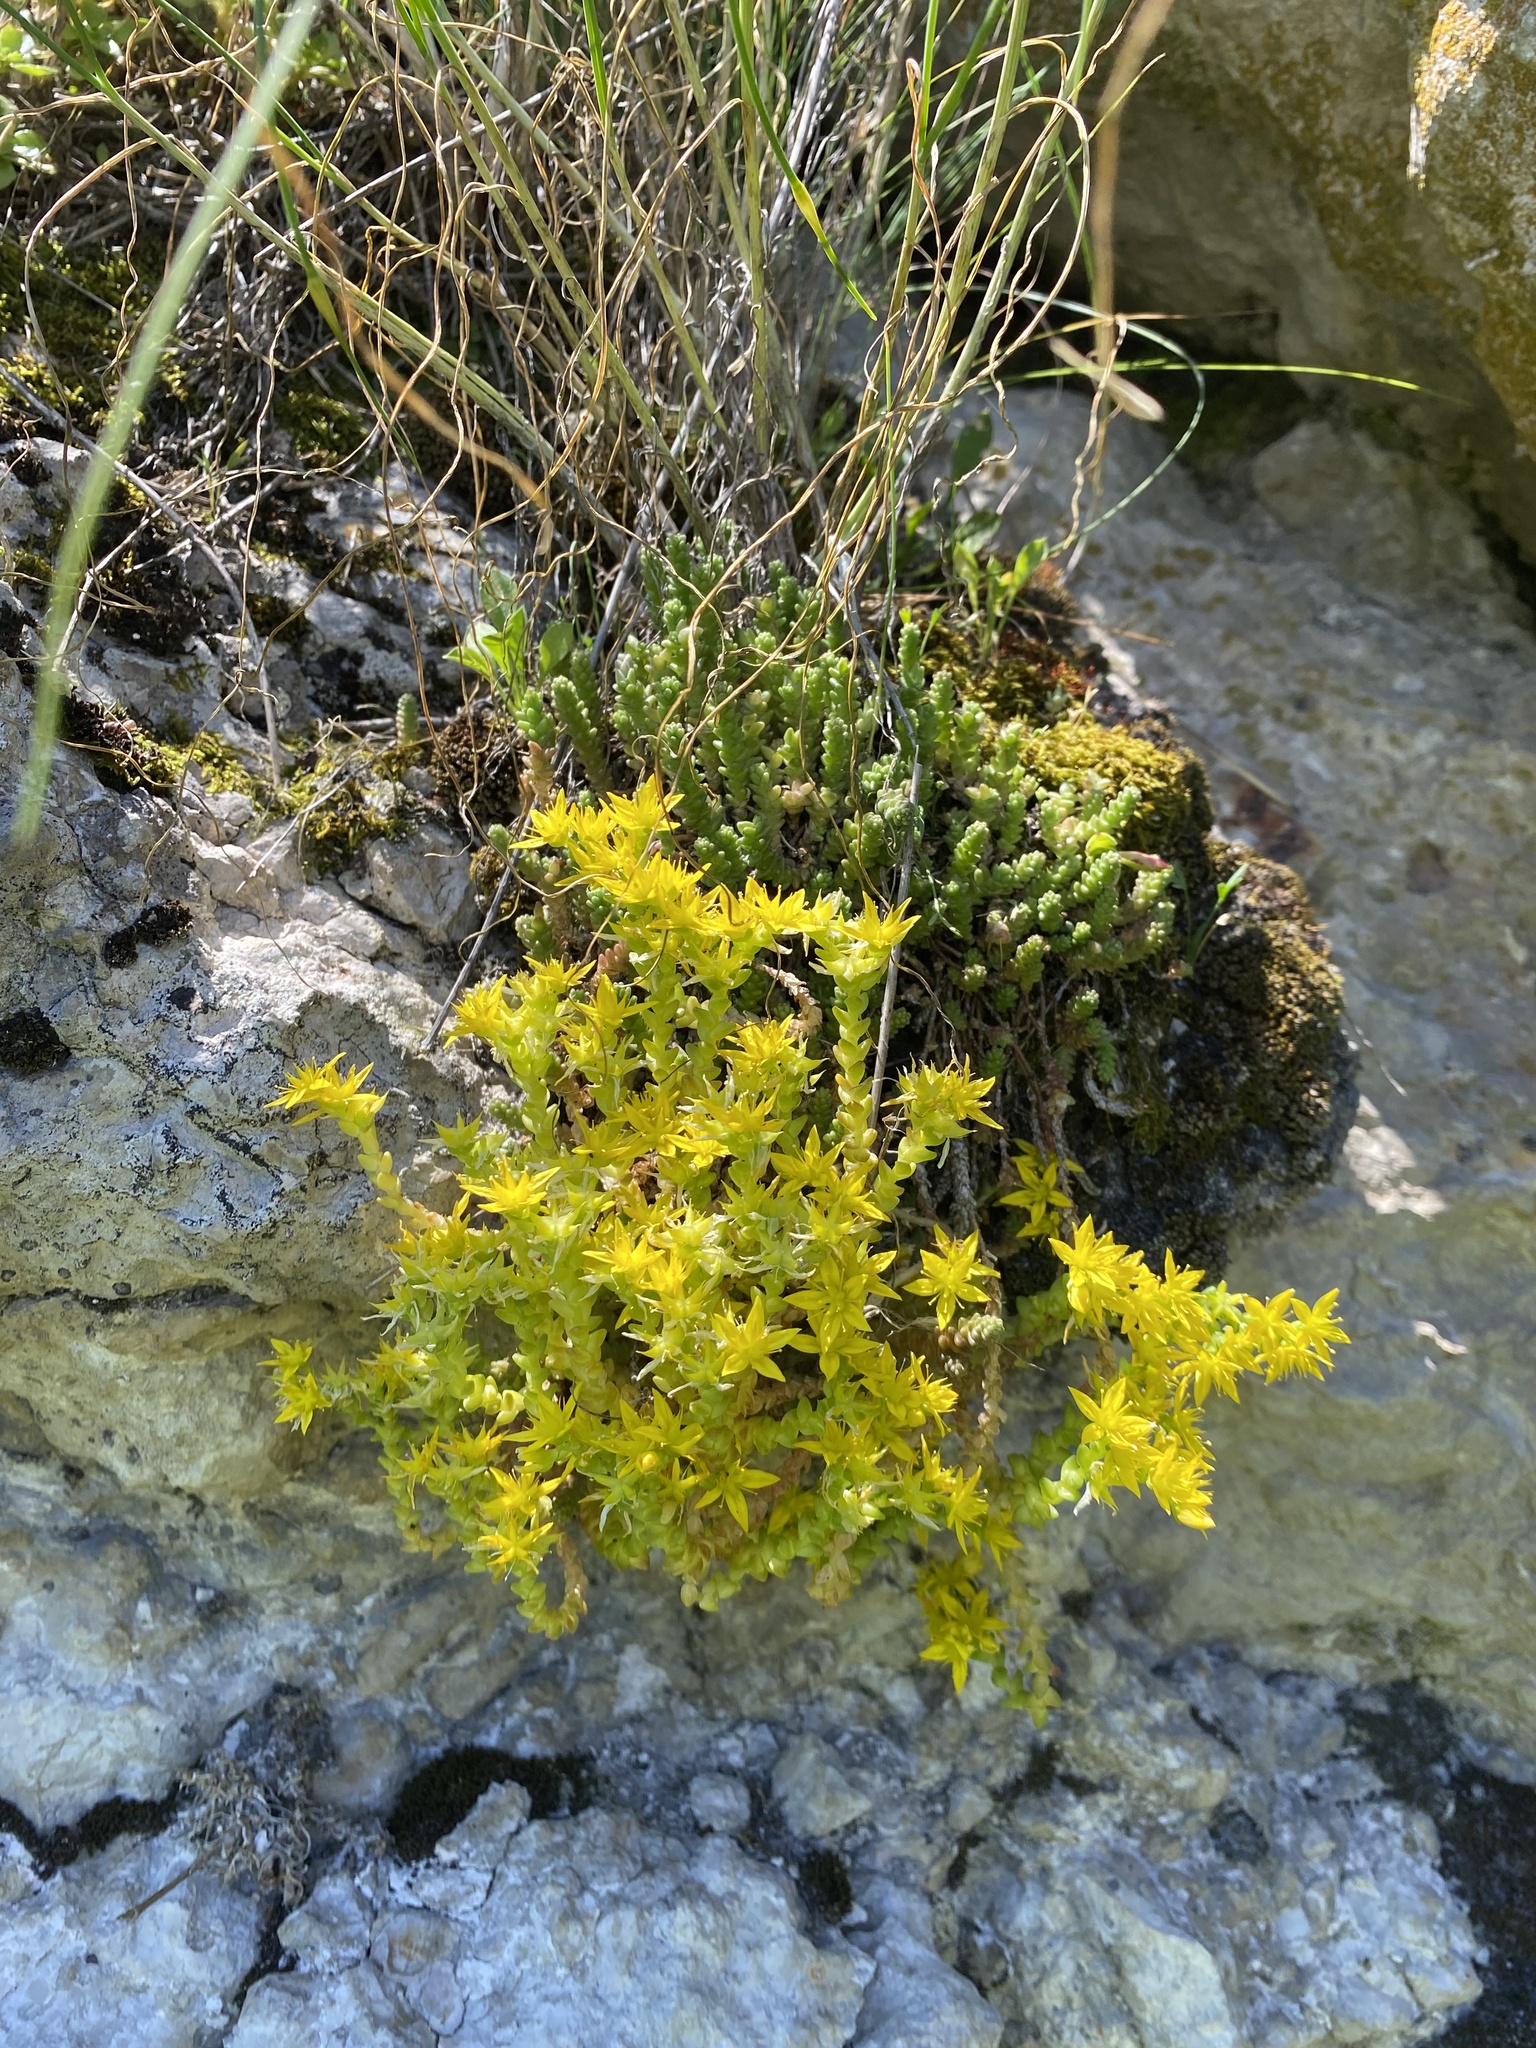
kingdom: Plantae
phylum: Tracheophyta
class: Magnoliopsida
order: Saxifragales
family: Crassulaceae
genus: Sedum
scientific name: Sedum acre
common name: Biting stonecrop
